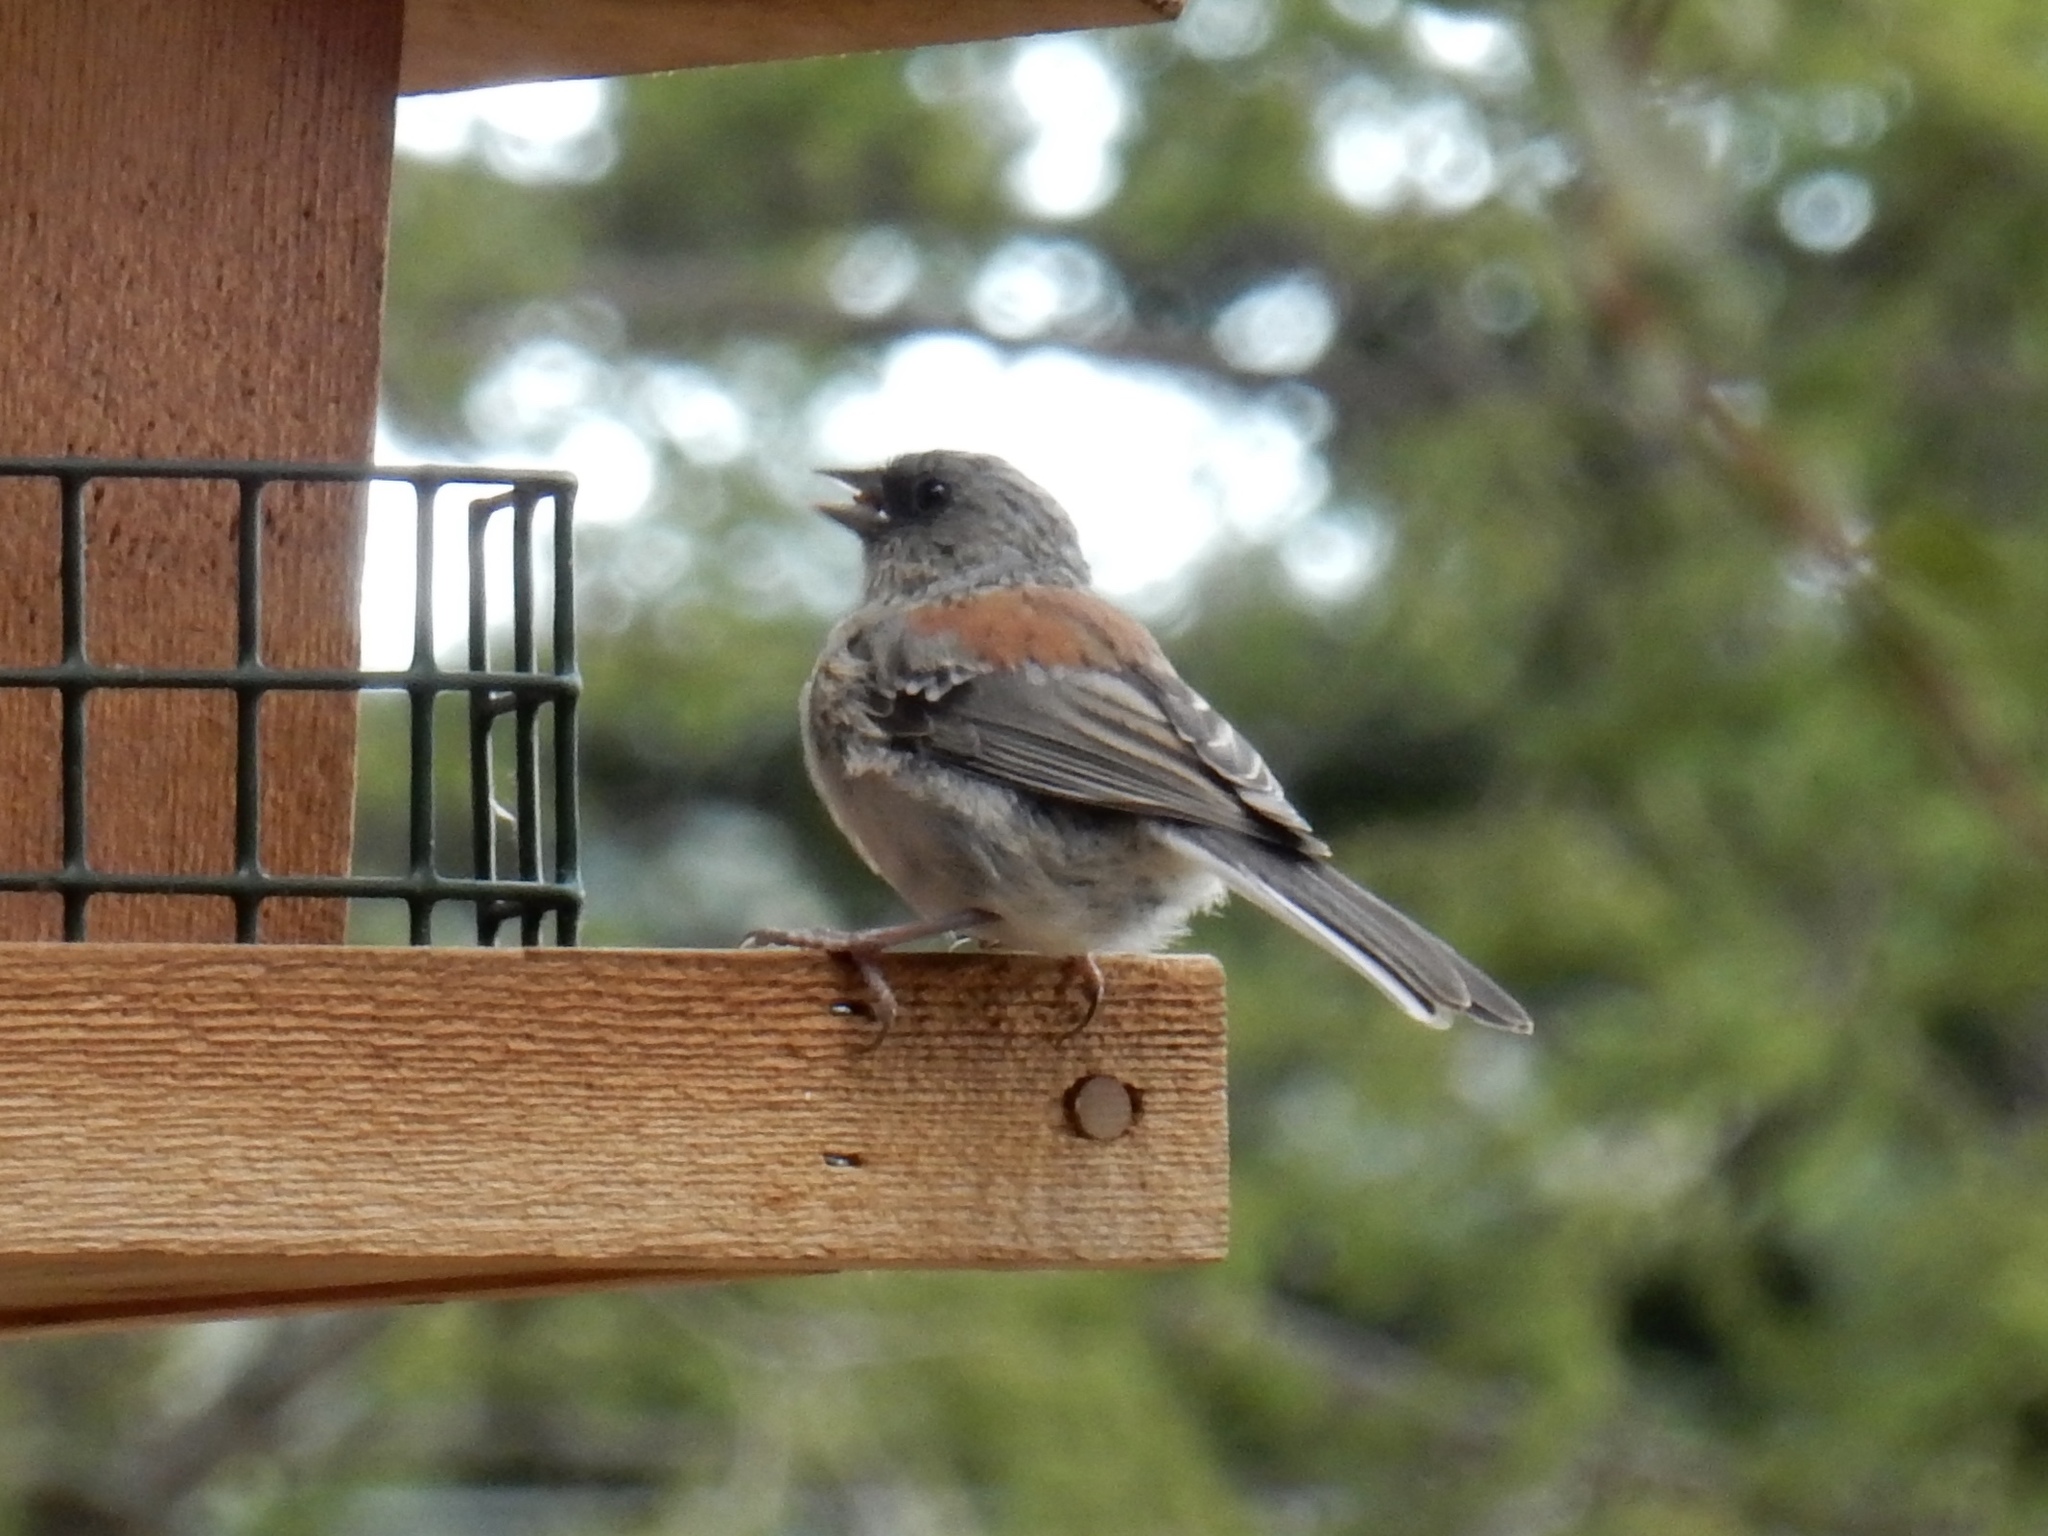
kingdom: Animalia
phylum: Chordata
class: Aves
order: Passeriformes
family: Passerellidae
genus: Junco
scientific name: Junco hyemalis
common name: Dark-eyed junco
